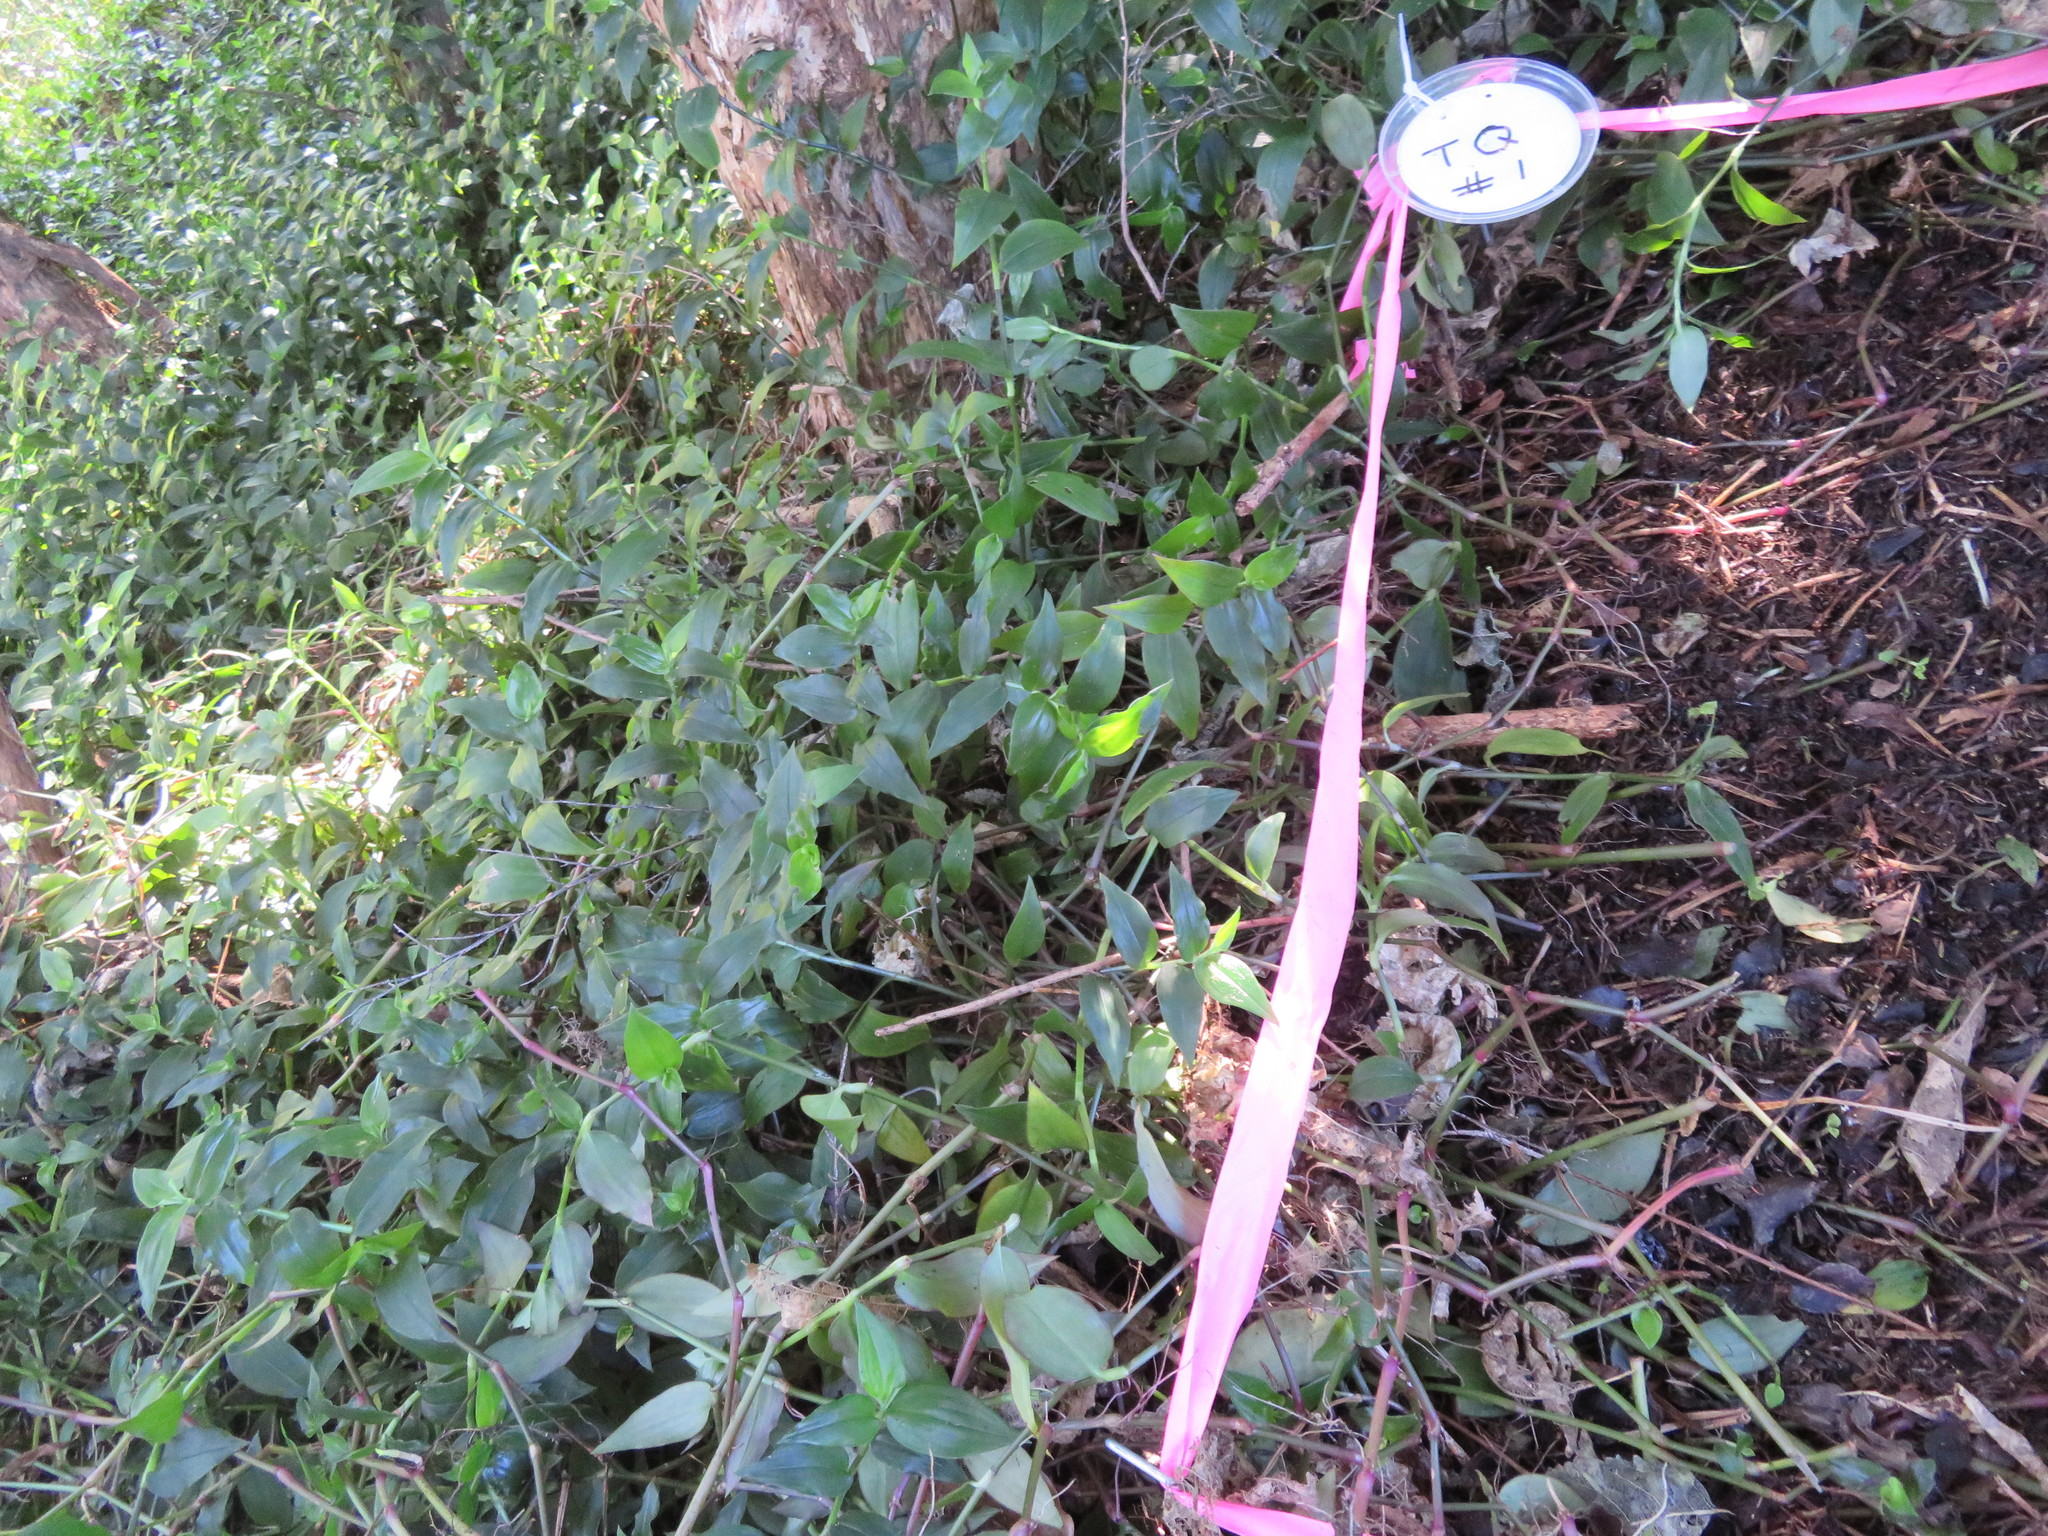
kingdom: Plantae
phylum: Tracheophyta
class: Liliopsida
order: Commelinales
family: Commelinaceae
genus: Tradescantia
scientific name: Tradescantia fluminensis
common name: Wandering-jew
